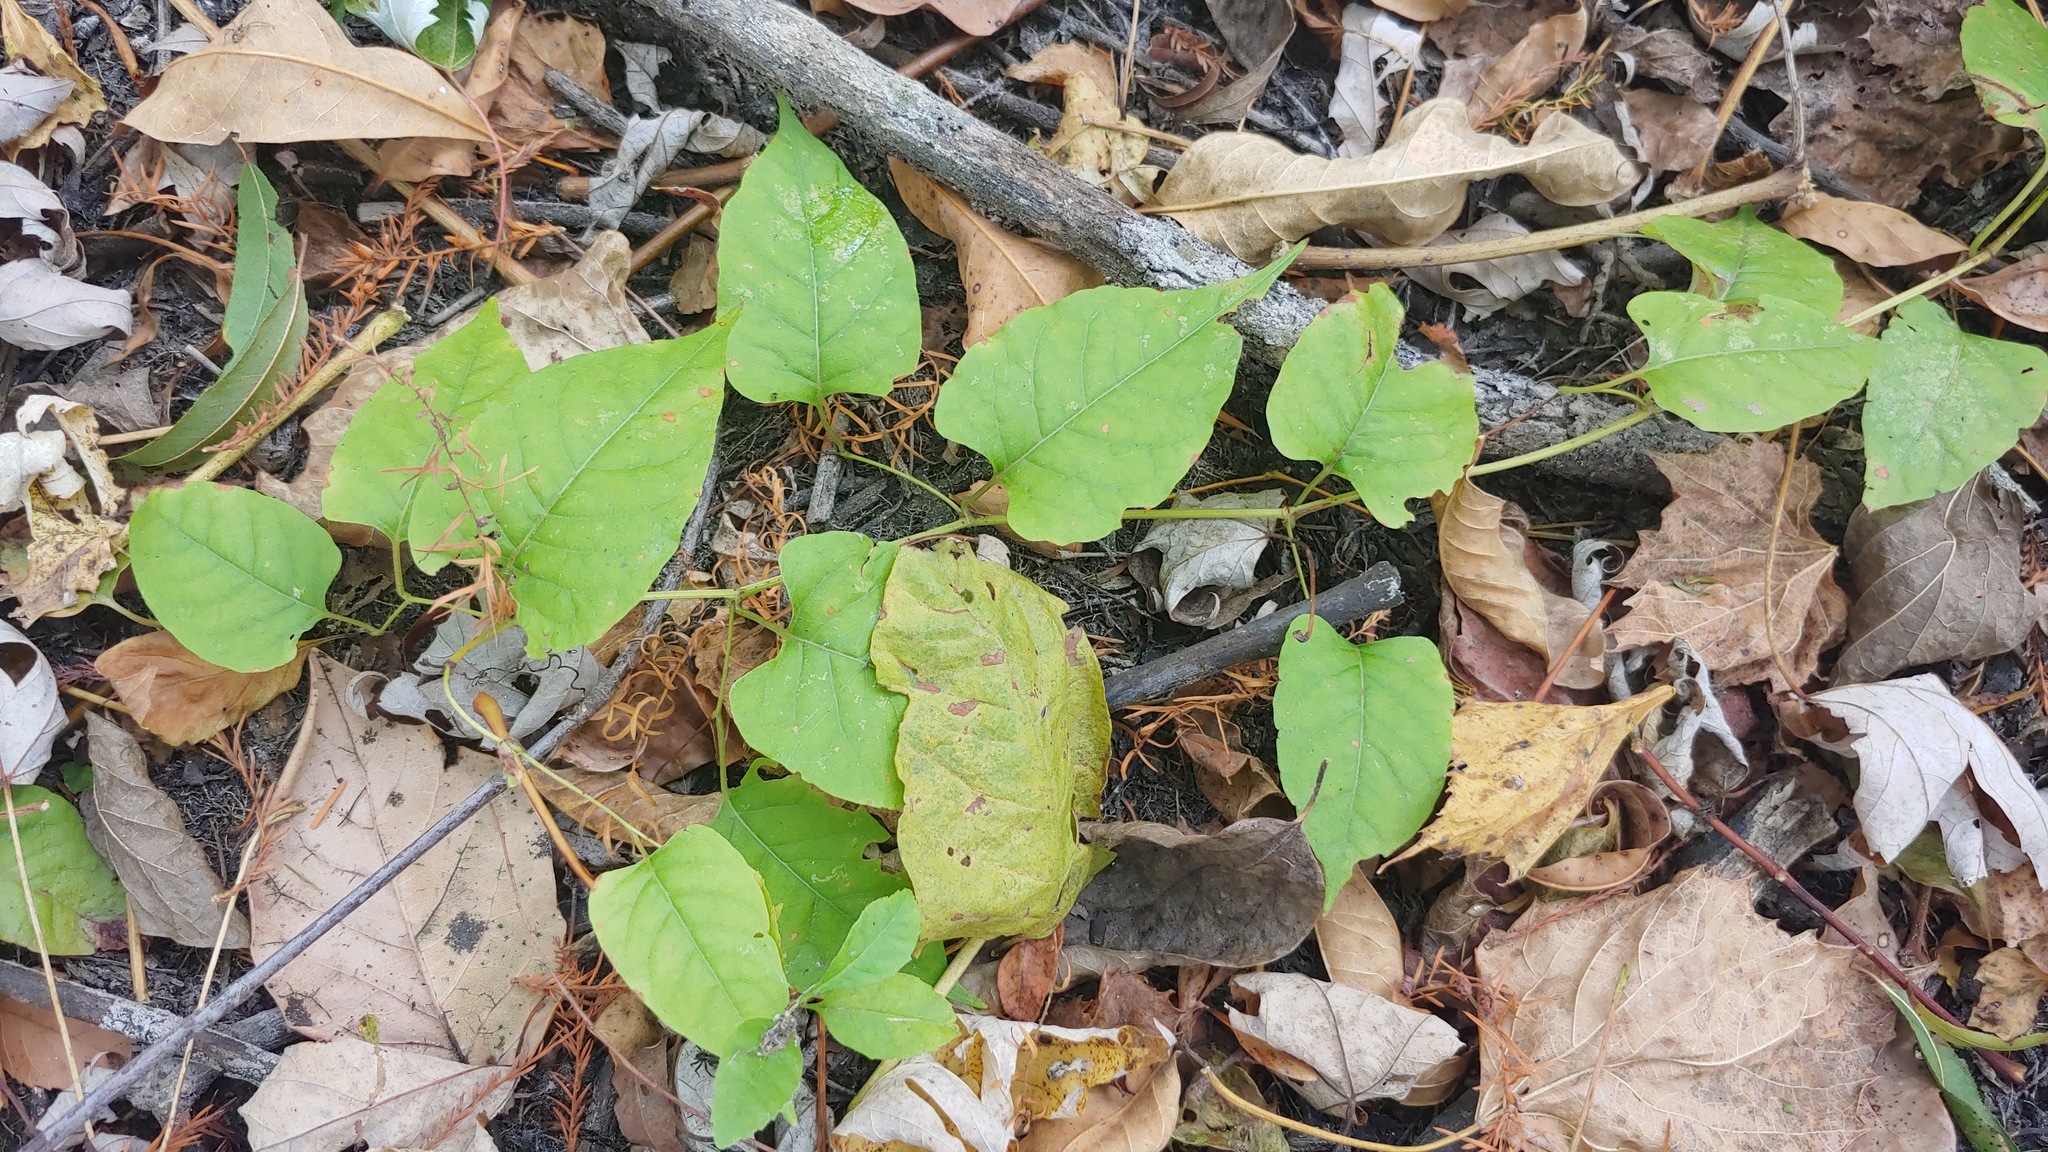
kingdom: Plantae
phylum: Tracheophyta
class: Magnoliopsida
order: Caryophyllales
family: Polygonaceae
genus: Brunnichia
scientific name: Brunnichia ovata
